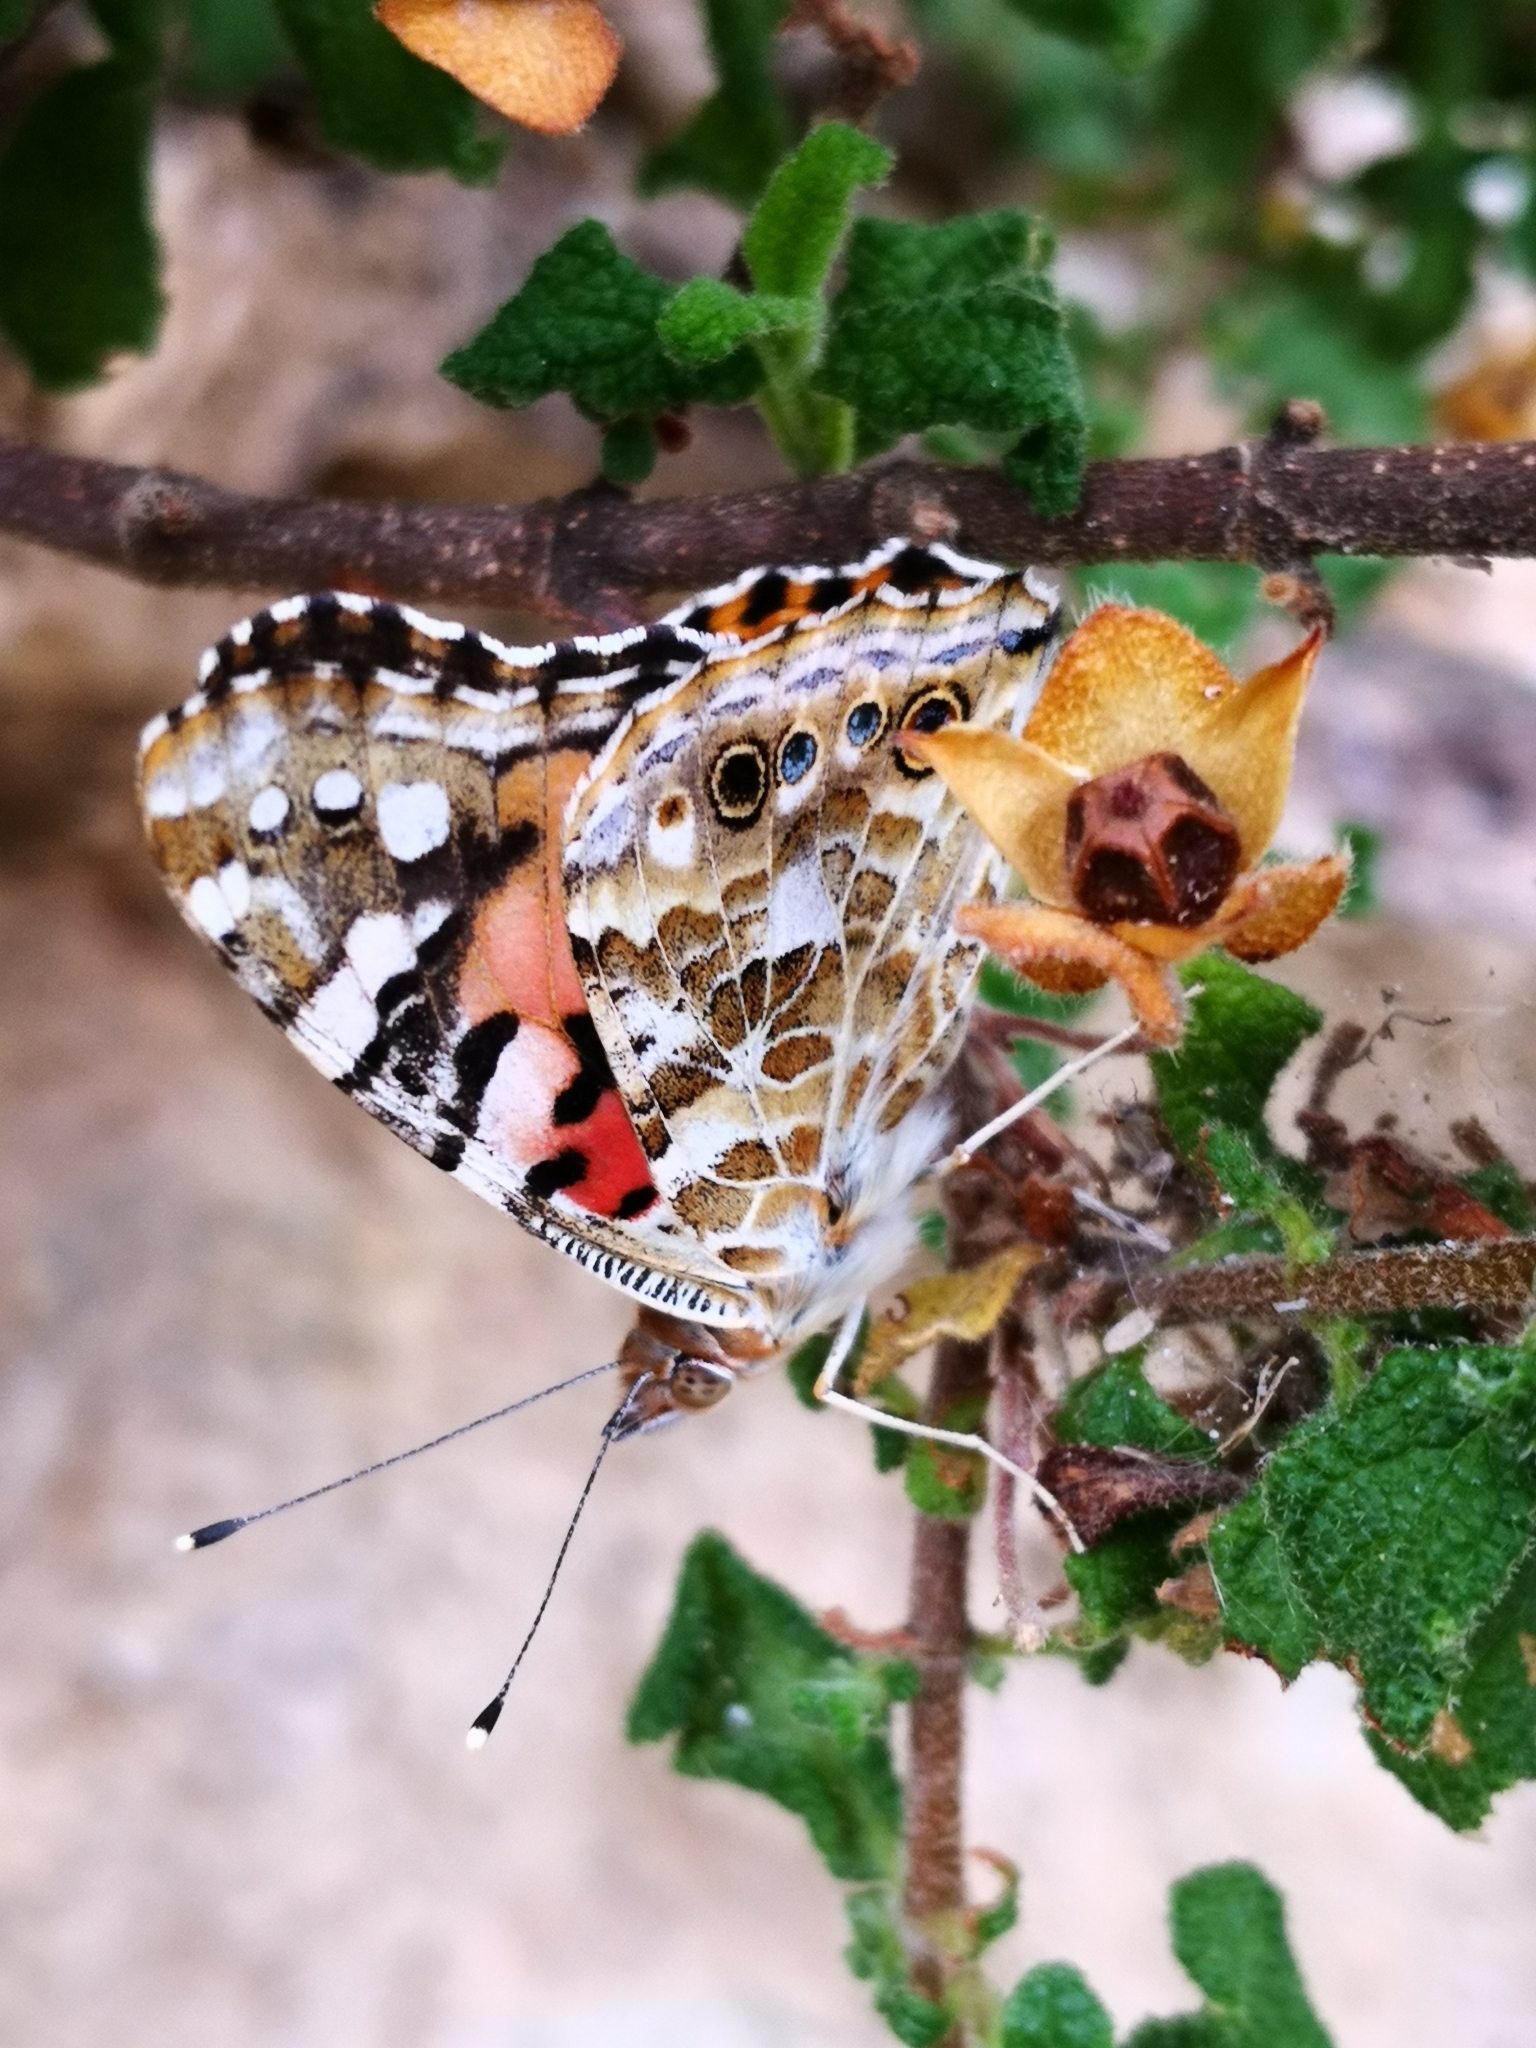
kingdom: Animalia
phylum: Arthropoda
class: Insecta
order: Lepidoptera
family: Nymphalidae
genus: Vanessa
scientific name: Vanessa cardui
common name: Painted lady
